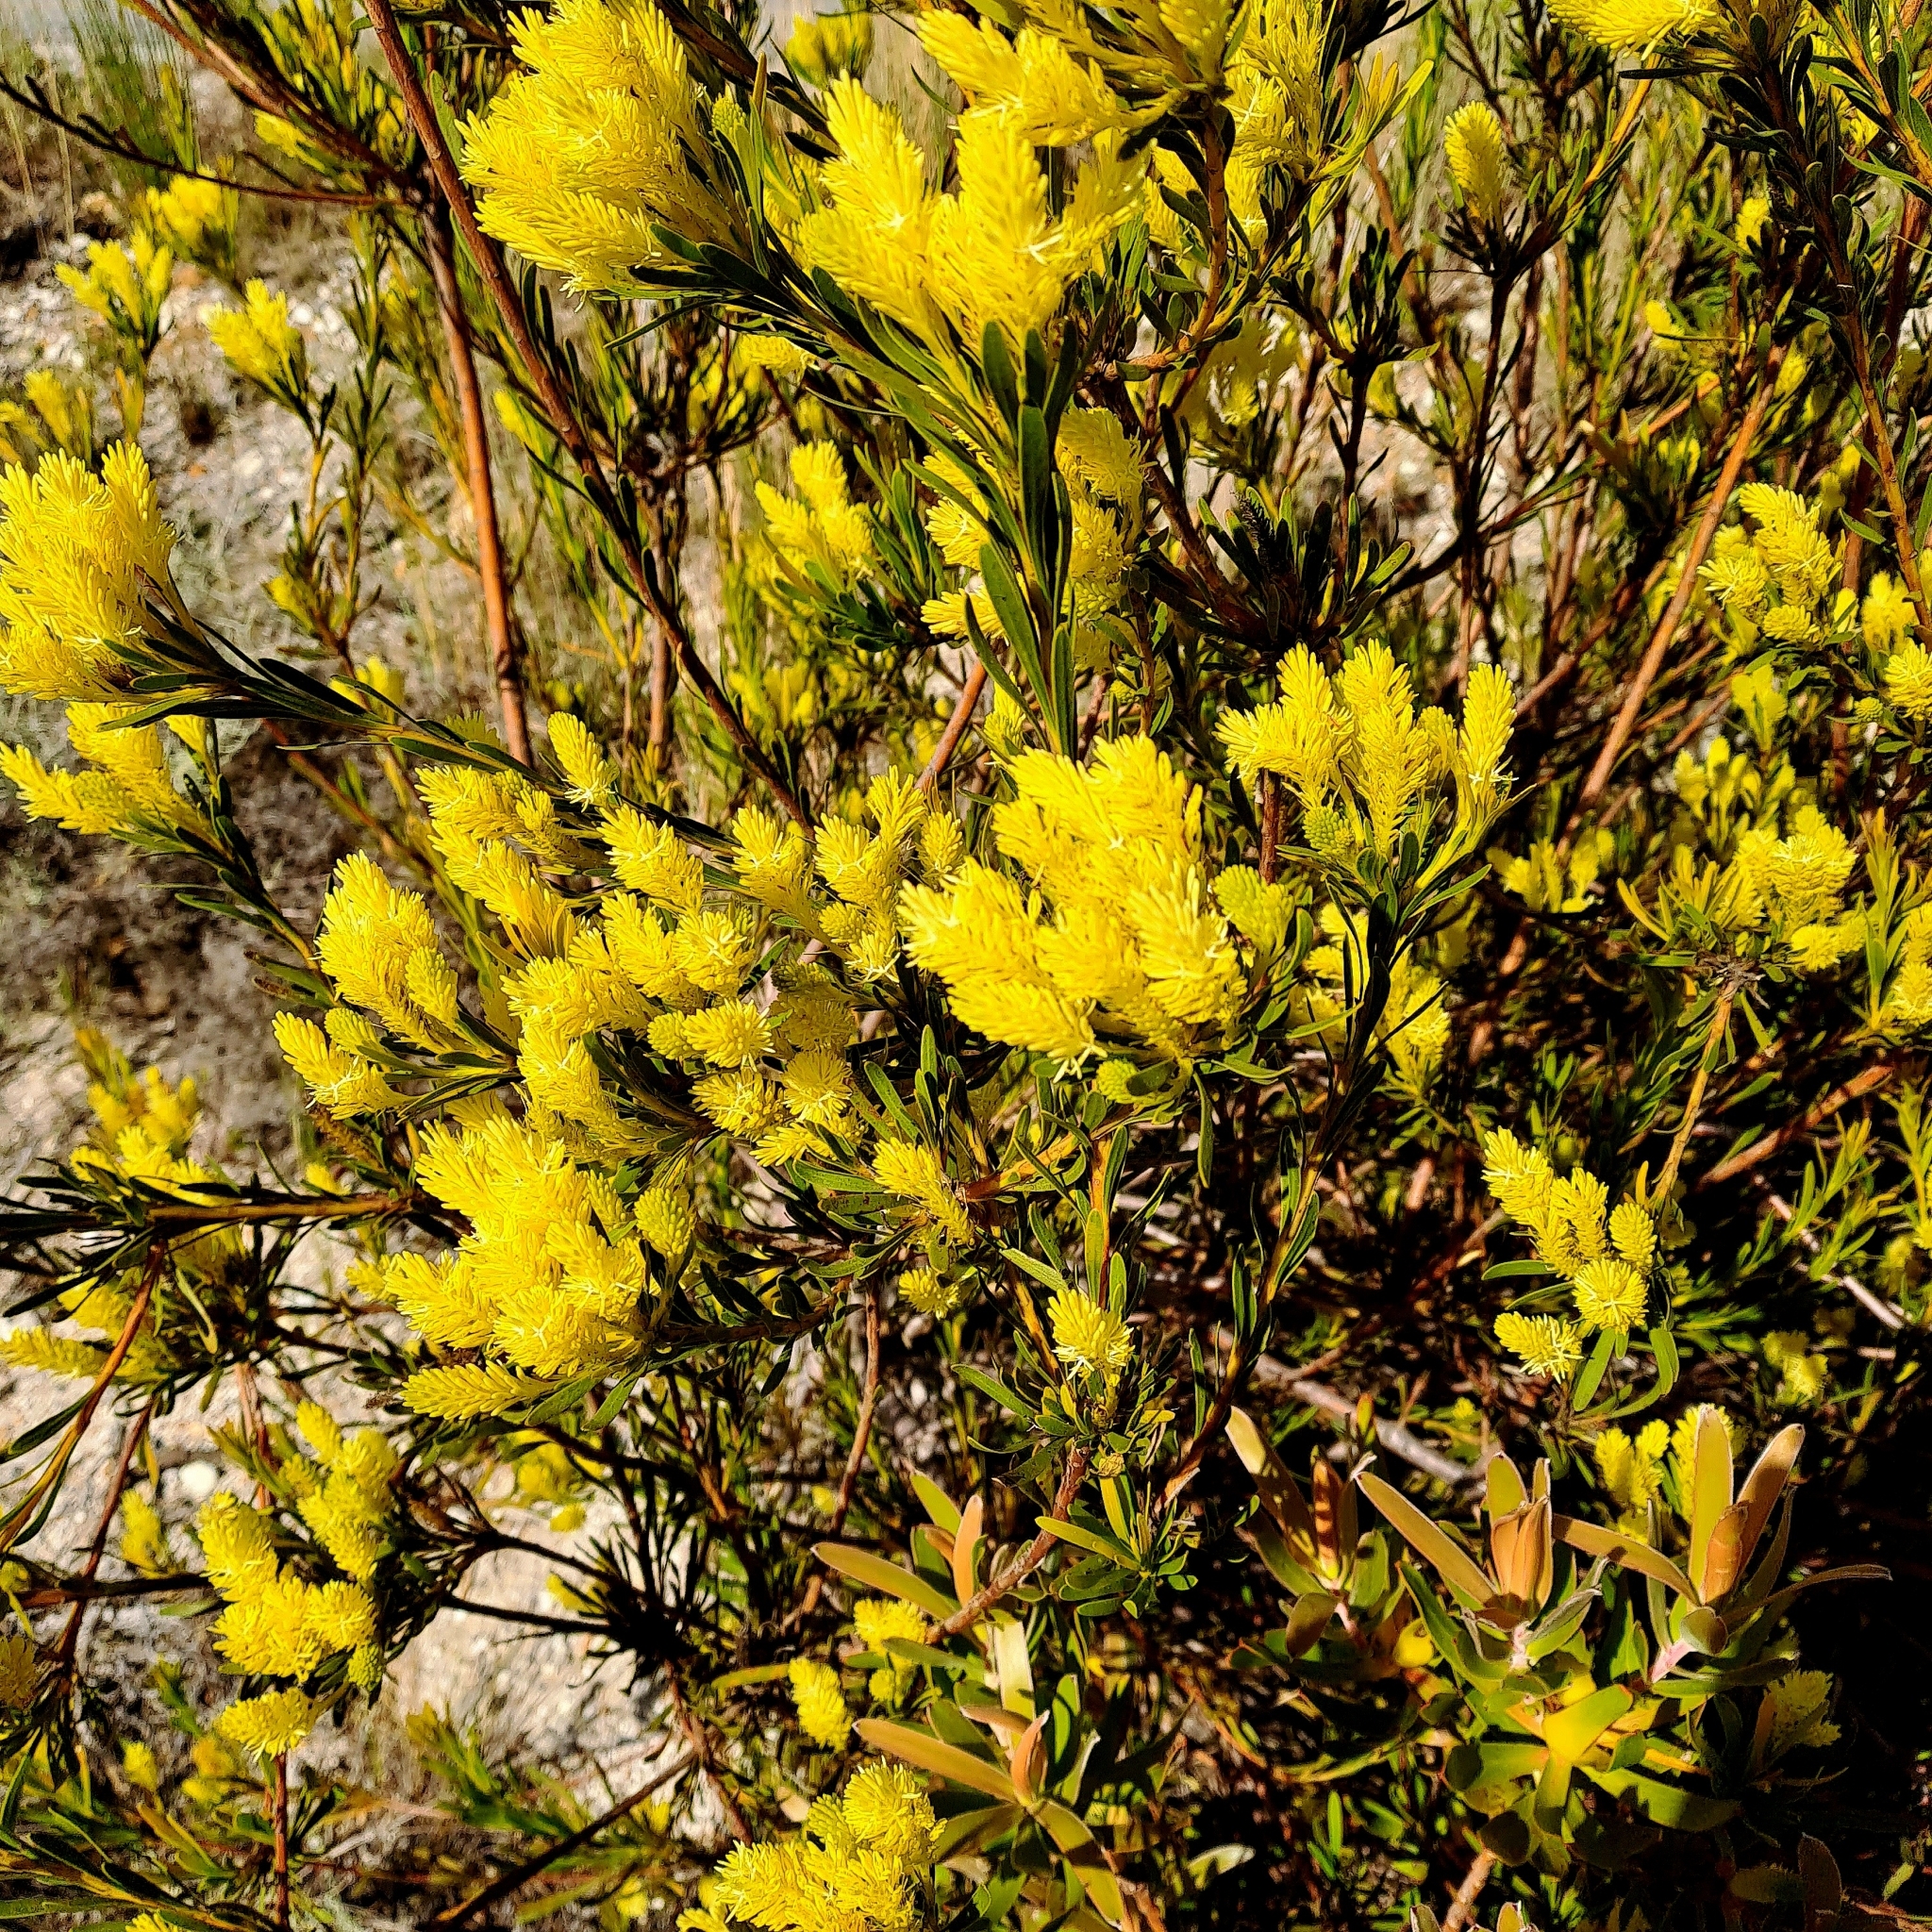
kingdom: Plantae
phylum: Tracheophyta
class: Magnoliopsida
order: Proteales
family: Proteaceae
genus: Aulax
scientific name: Aulax
